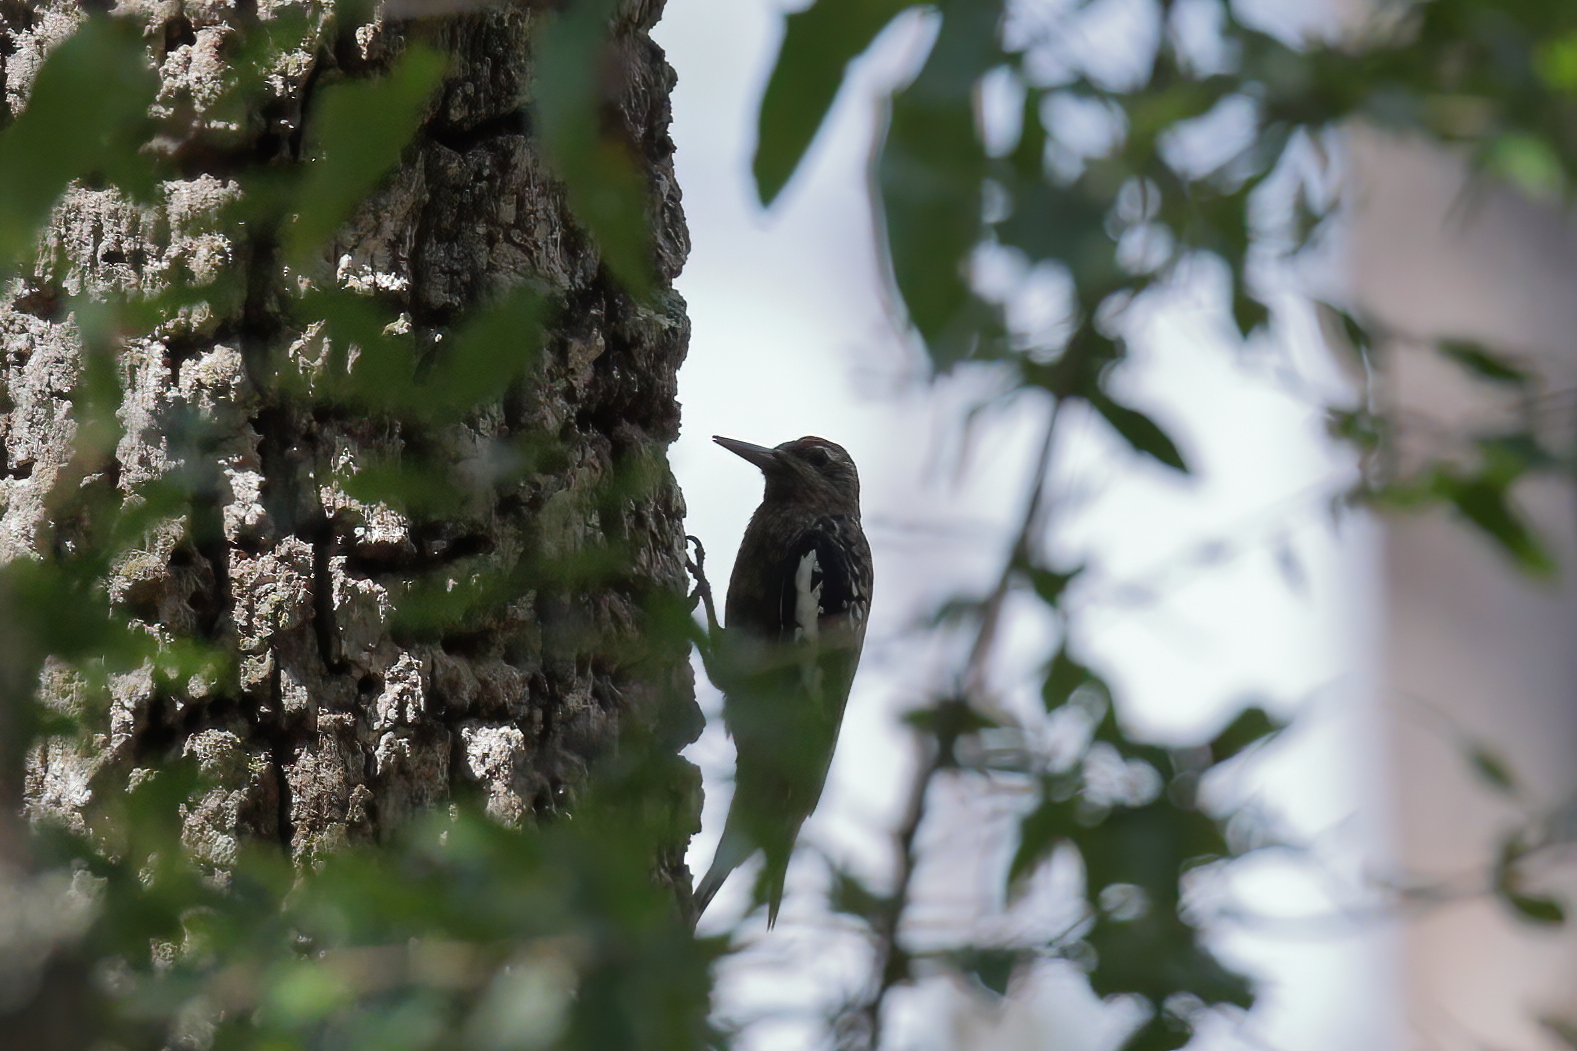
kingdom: Animalia
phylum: Chordata
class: Aves
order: Piciformes
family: Picidae
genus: Sphyrapicus
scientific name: Sphyrapicus varius
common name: Yellow-bellied sapsucker
